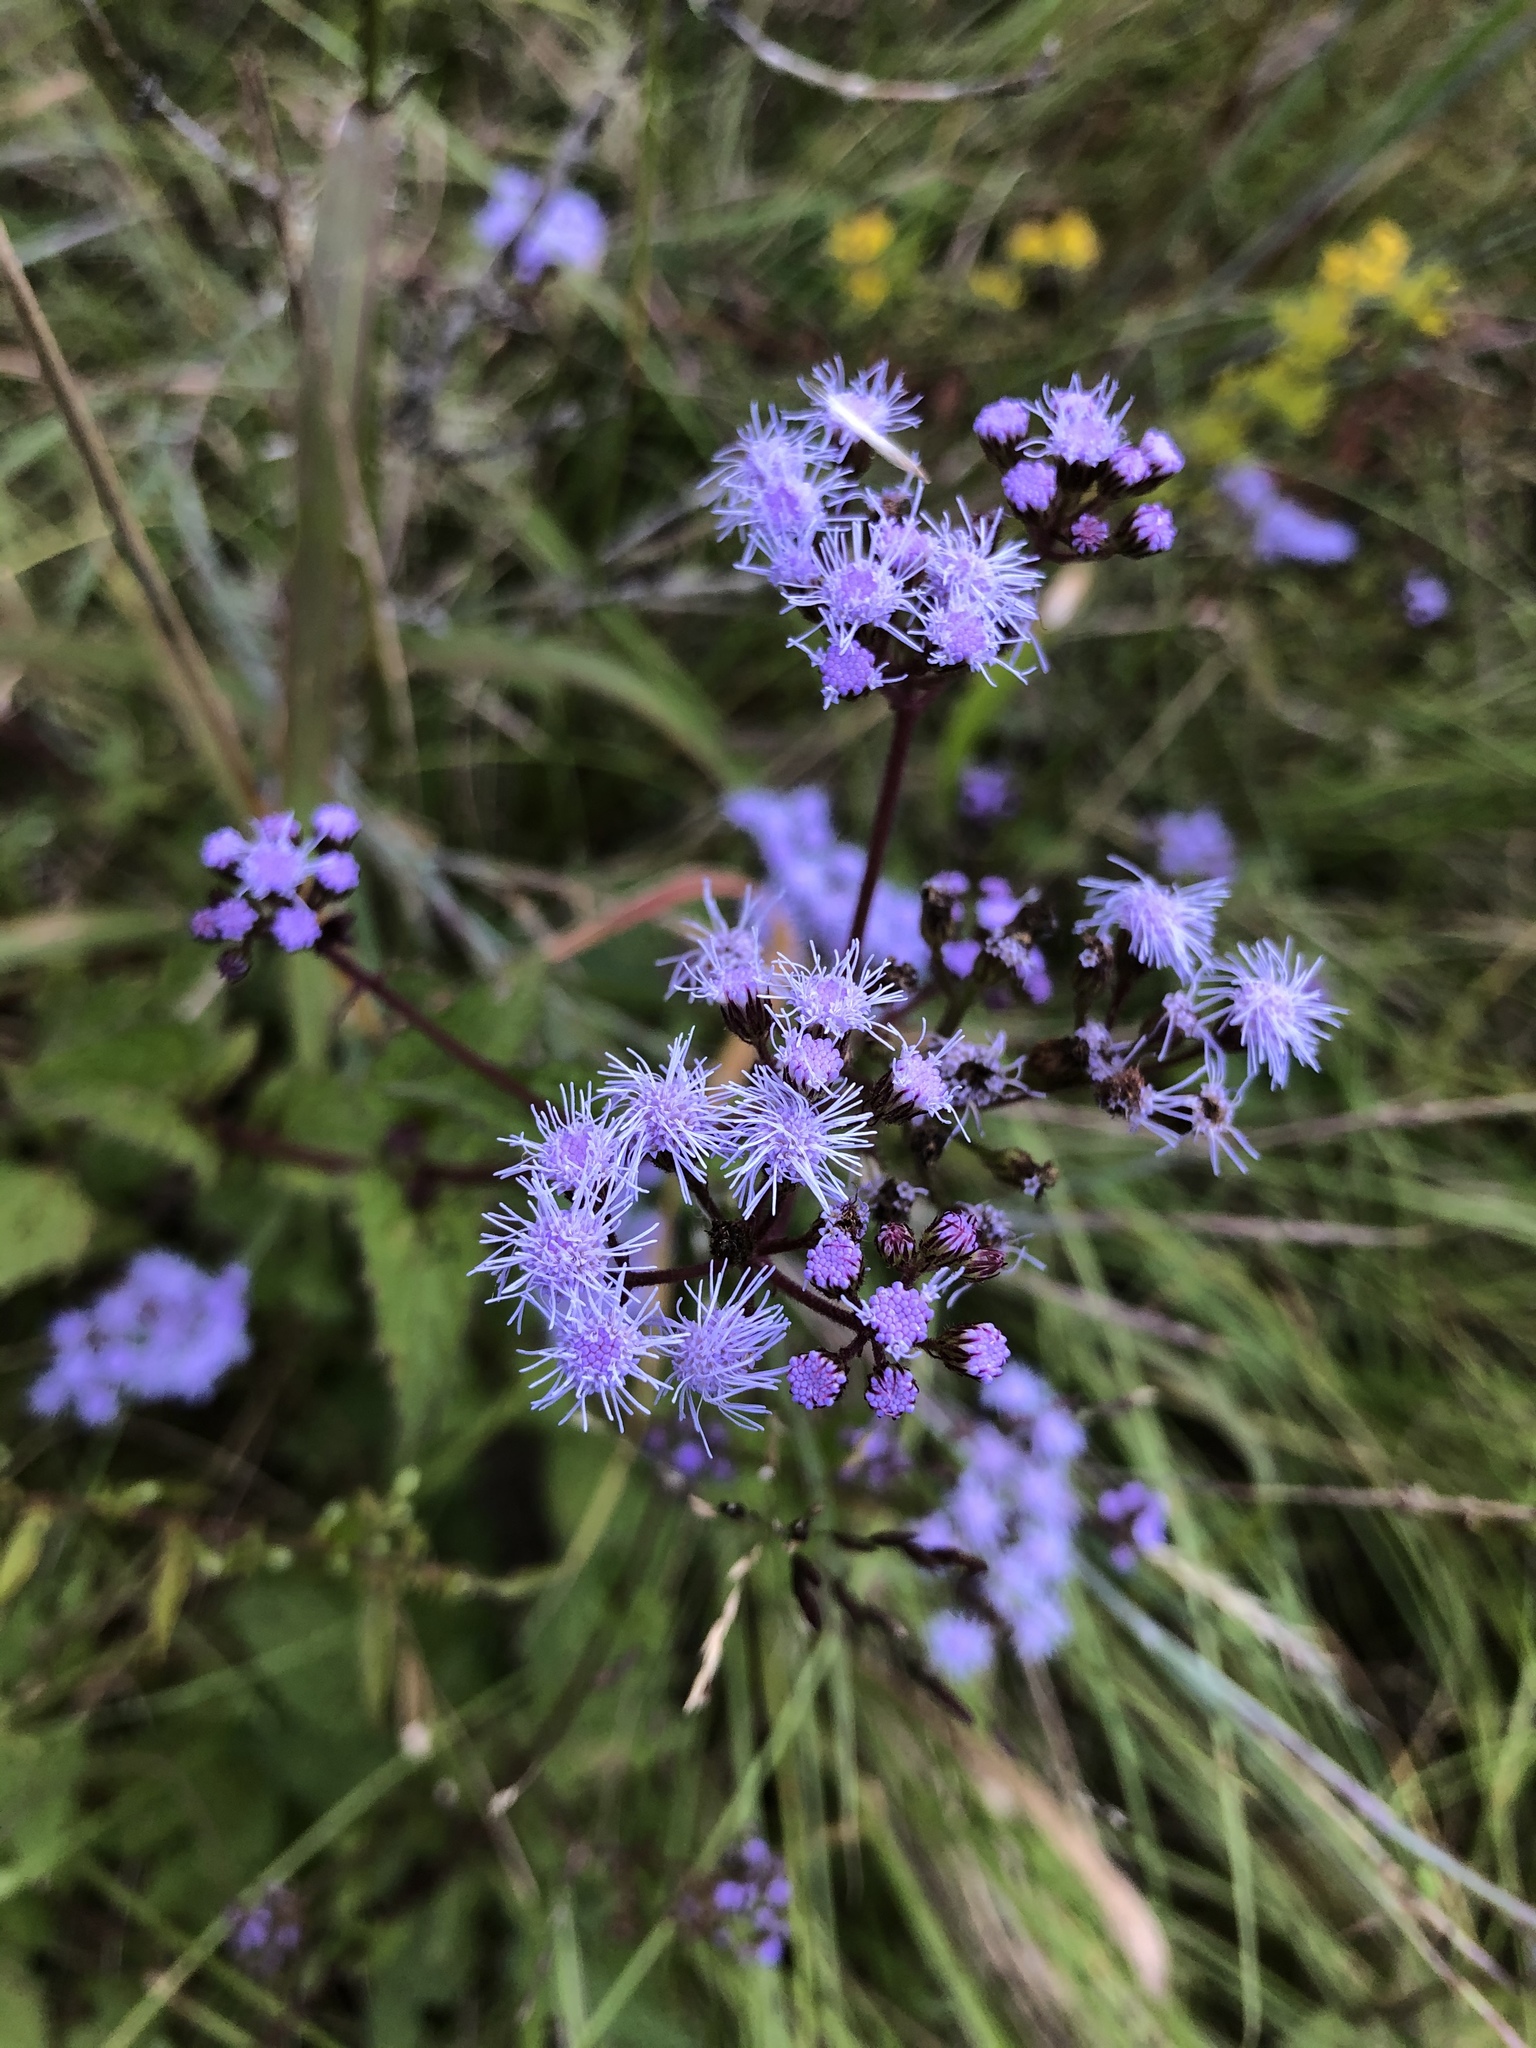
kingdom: Plantae
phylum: Tracheophyta
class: Magnoliopsida
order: Asterales
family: Asteraceae
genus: Conoclinium
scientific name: Conoclinium coelestinum
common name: Blue mistflower
